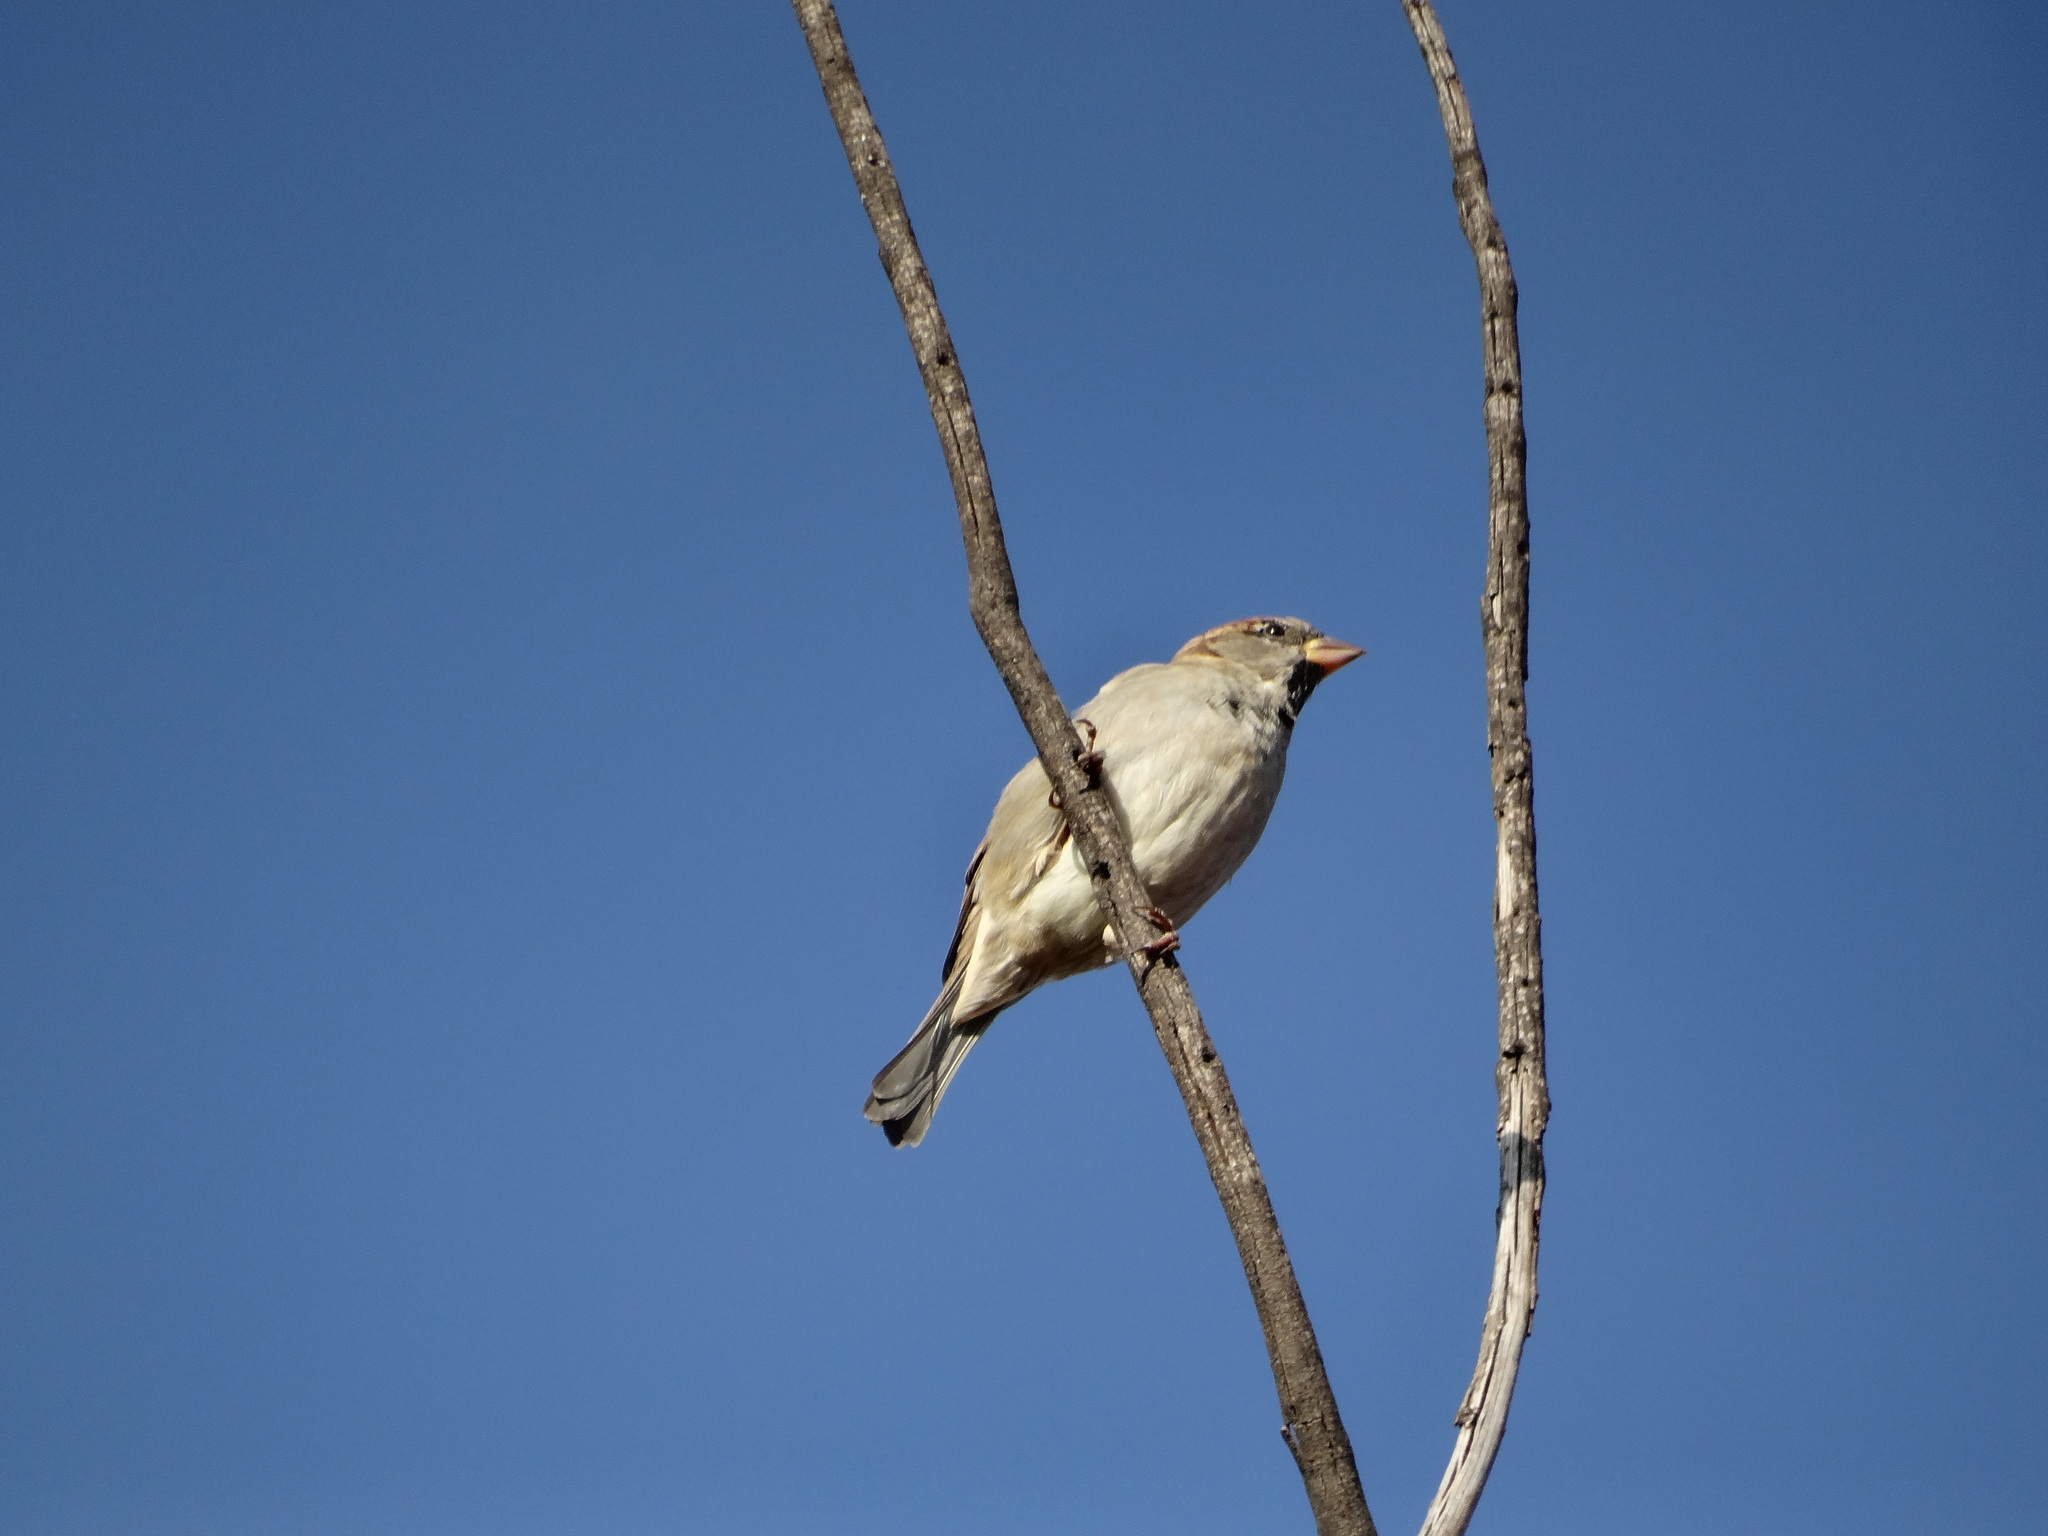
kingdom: Animalia
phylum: Chordata
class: Aves
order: Passeriformes
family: Passeridae
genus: Passer
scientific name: Passer domesticus
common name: House sparrow
